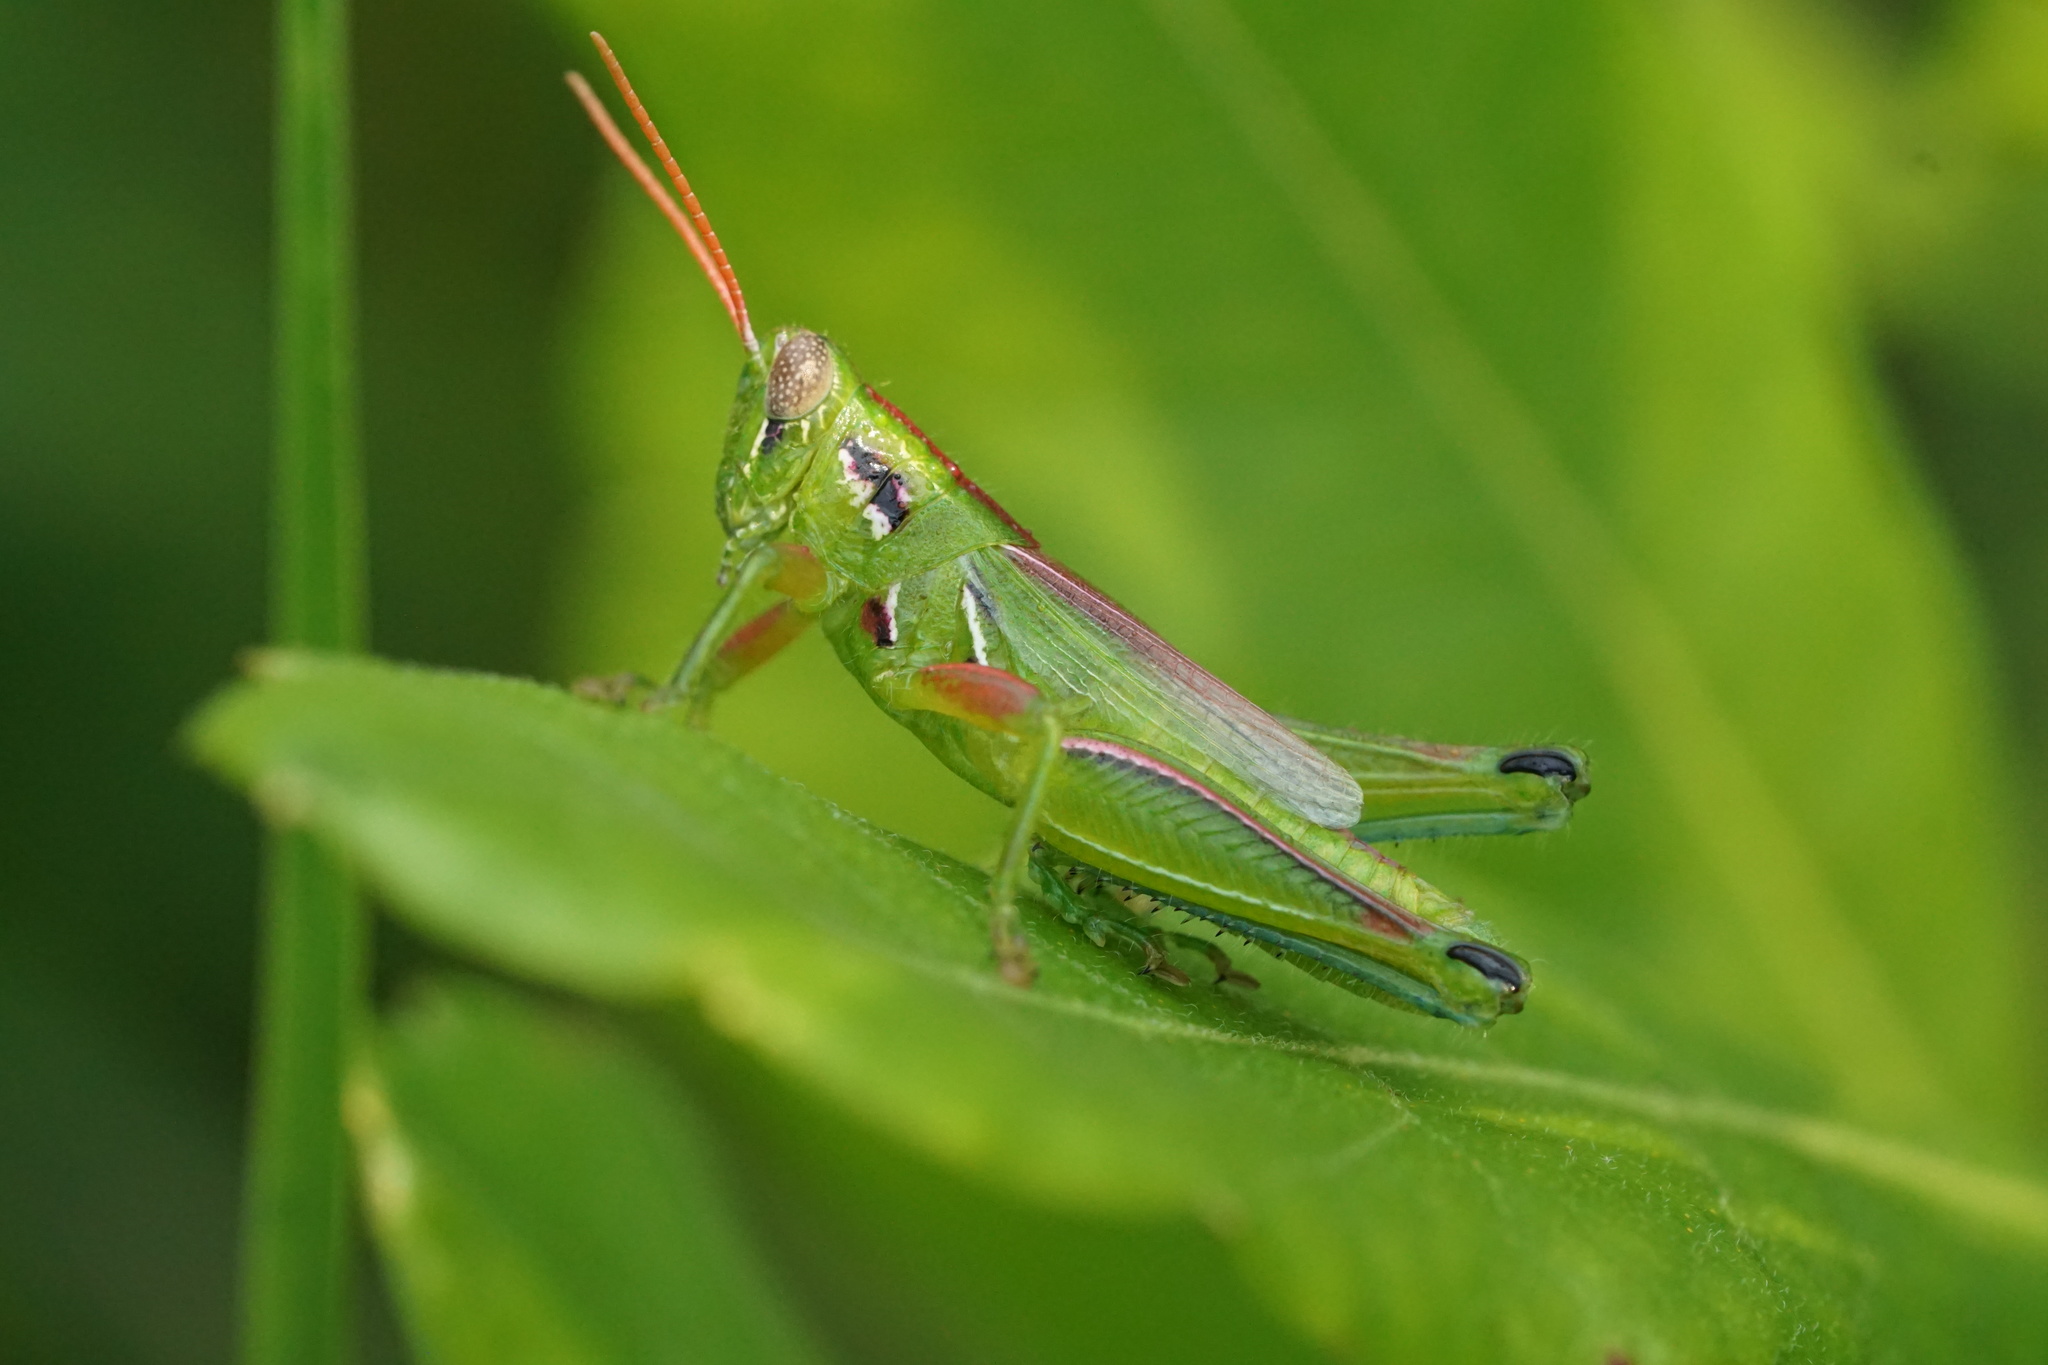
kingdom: Animalia
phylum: Arthropoda
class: Insecta
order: Orthoptera
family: Acrididae
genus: Hesperotettix
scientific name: Hesperotettix viridis
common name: Meadow purple-striped grasshopper
